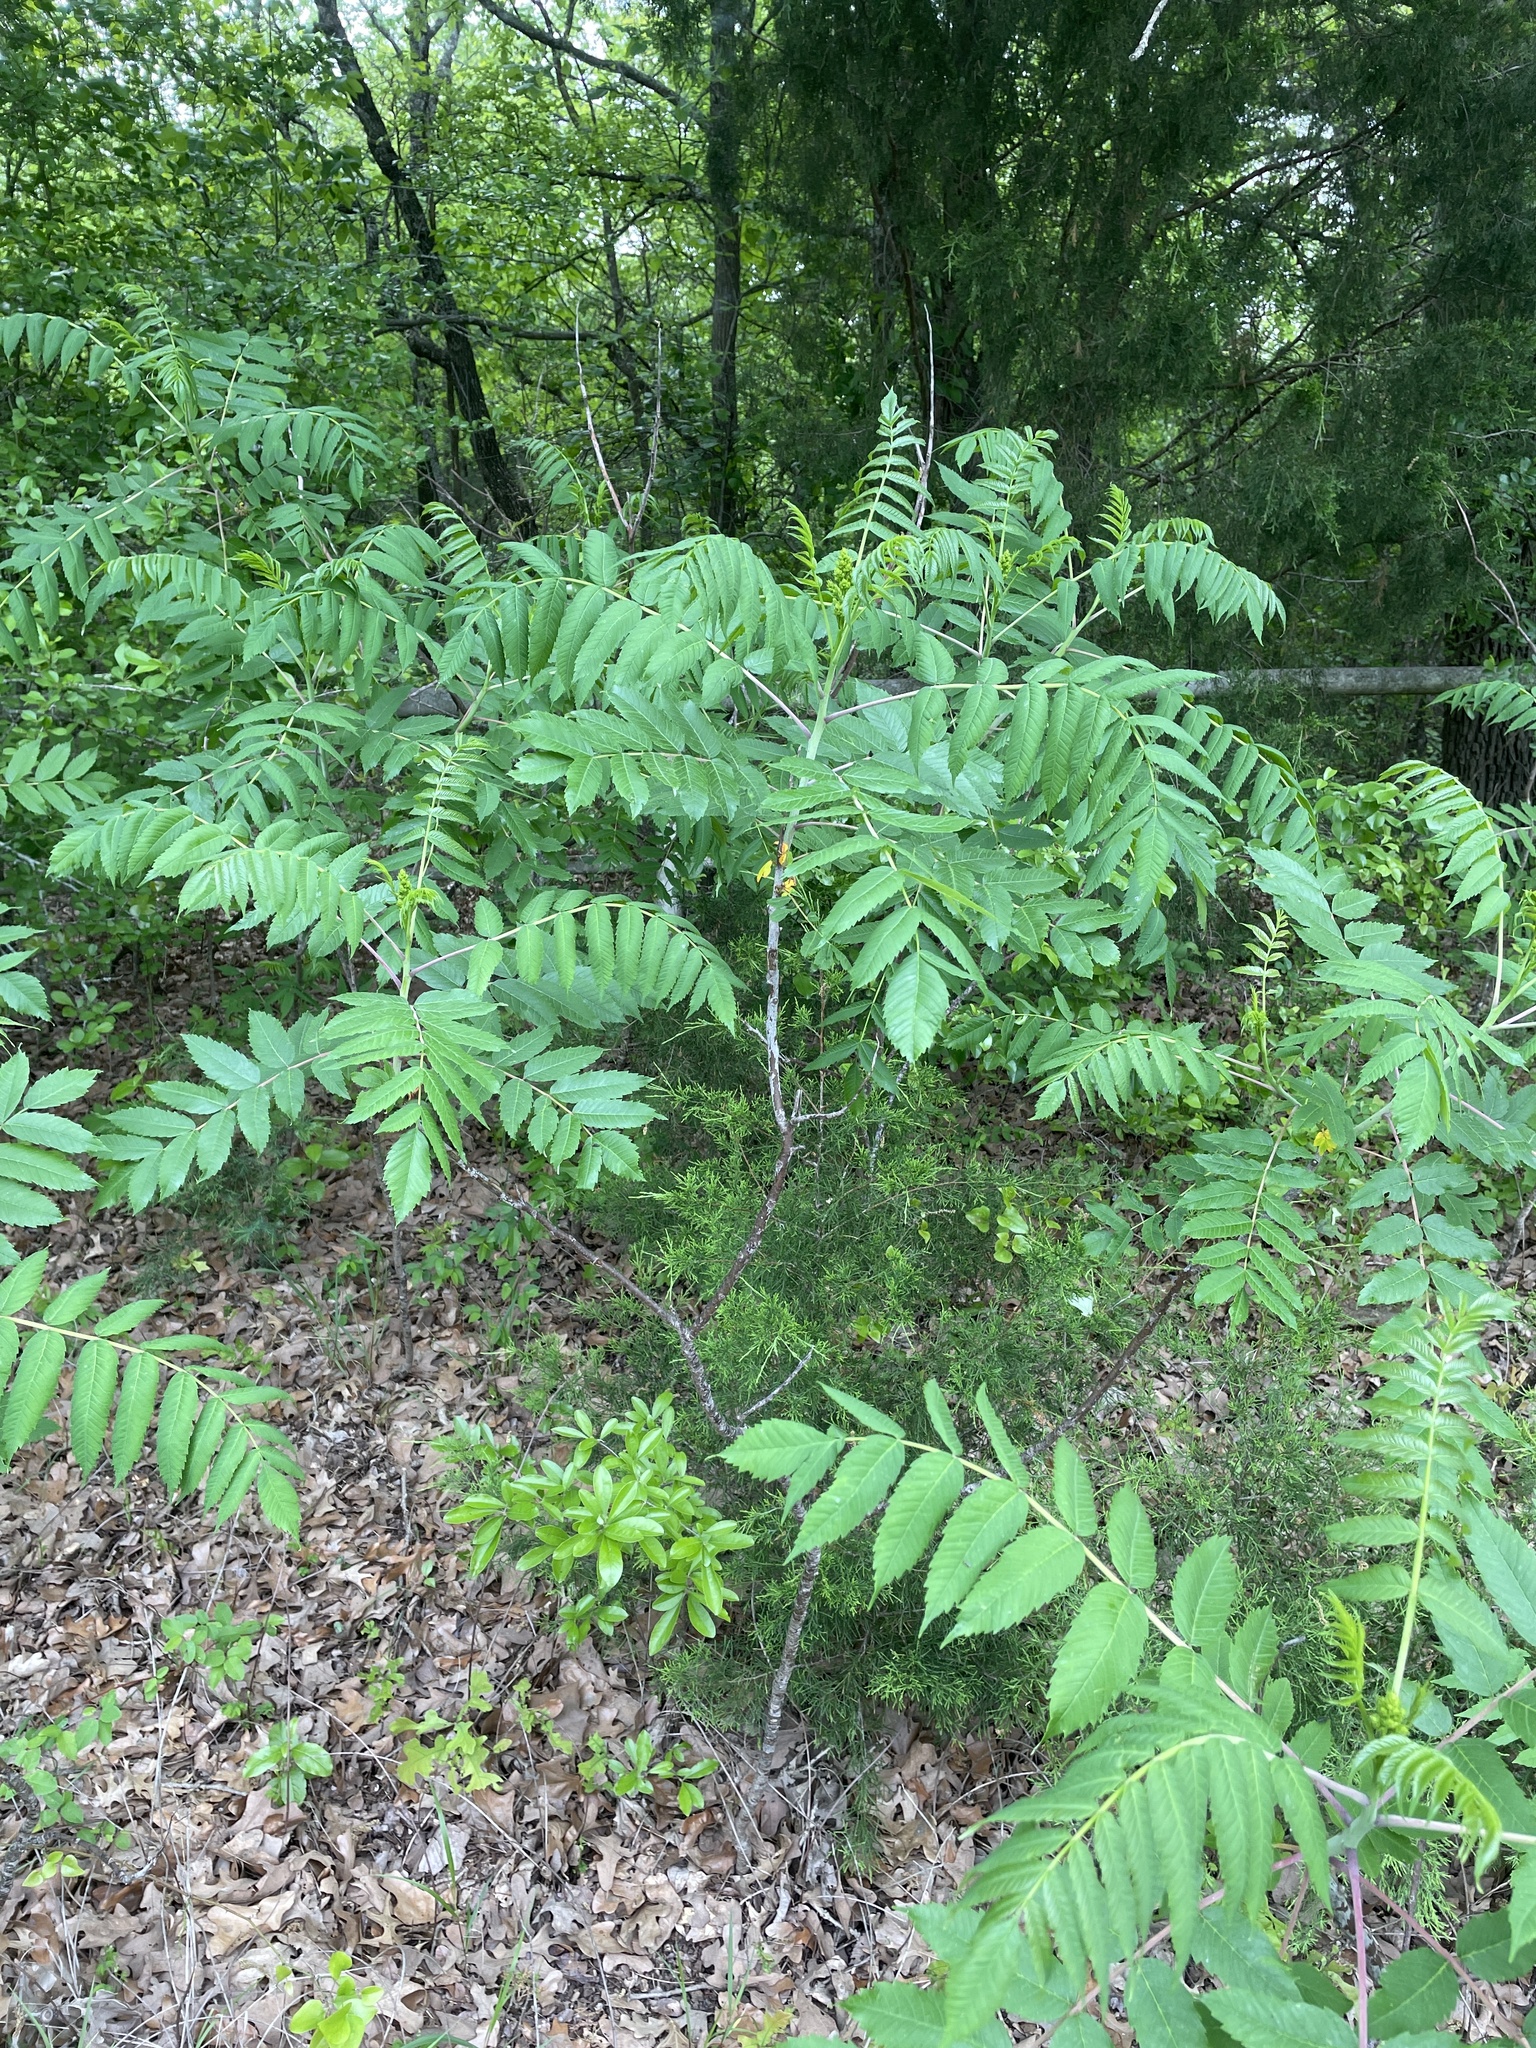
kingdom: Plantae
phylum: Tracheophyta
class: Magnoliopsida
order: Sapindales
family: Anacardiaceae
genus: Rhus
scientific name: Rhus glabra
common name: Scarlet sumac
